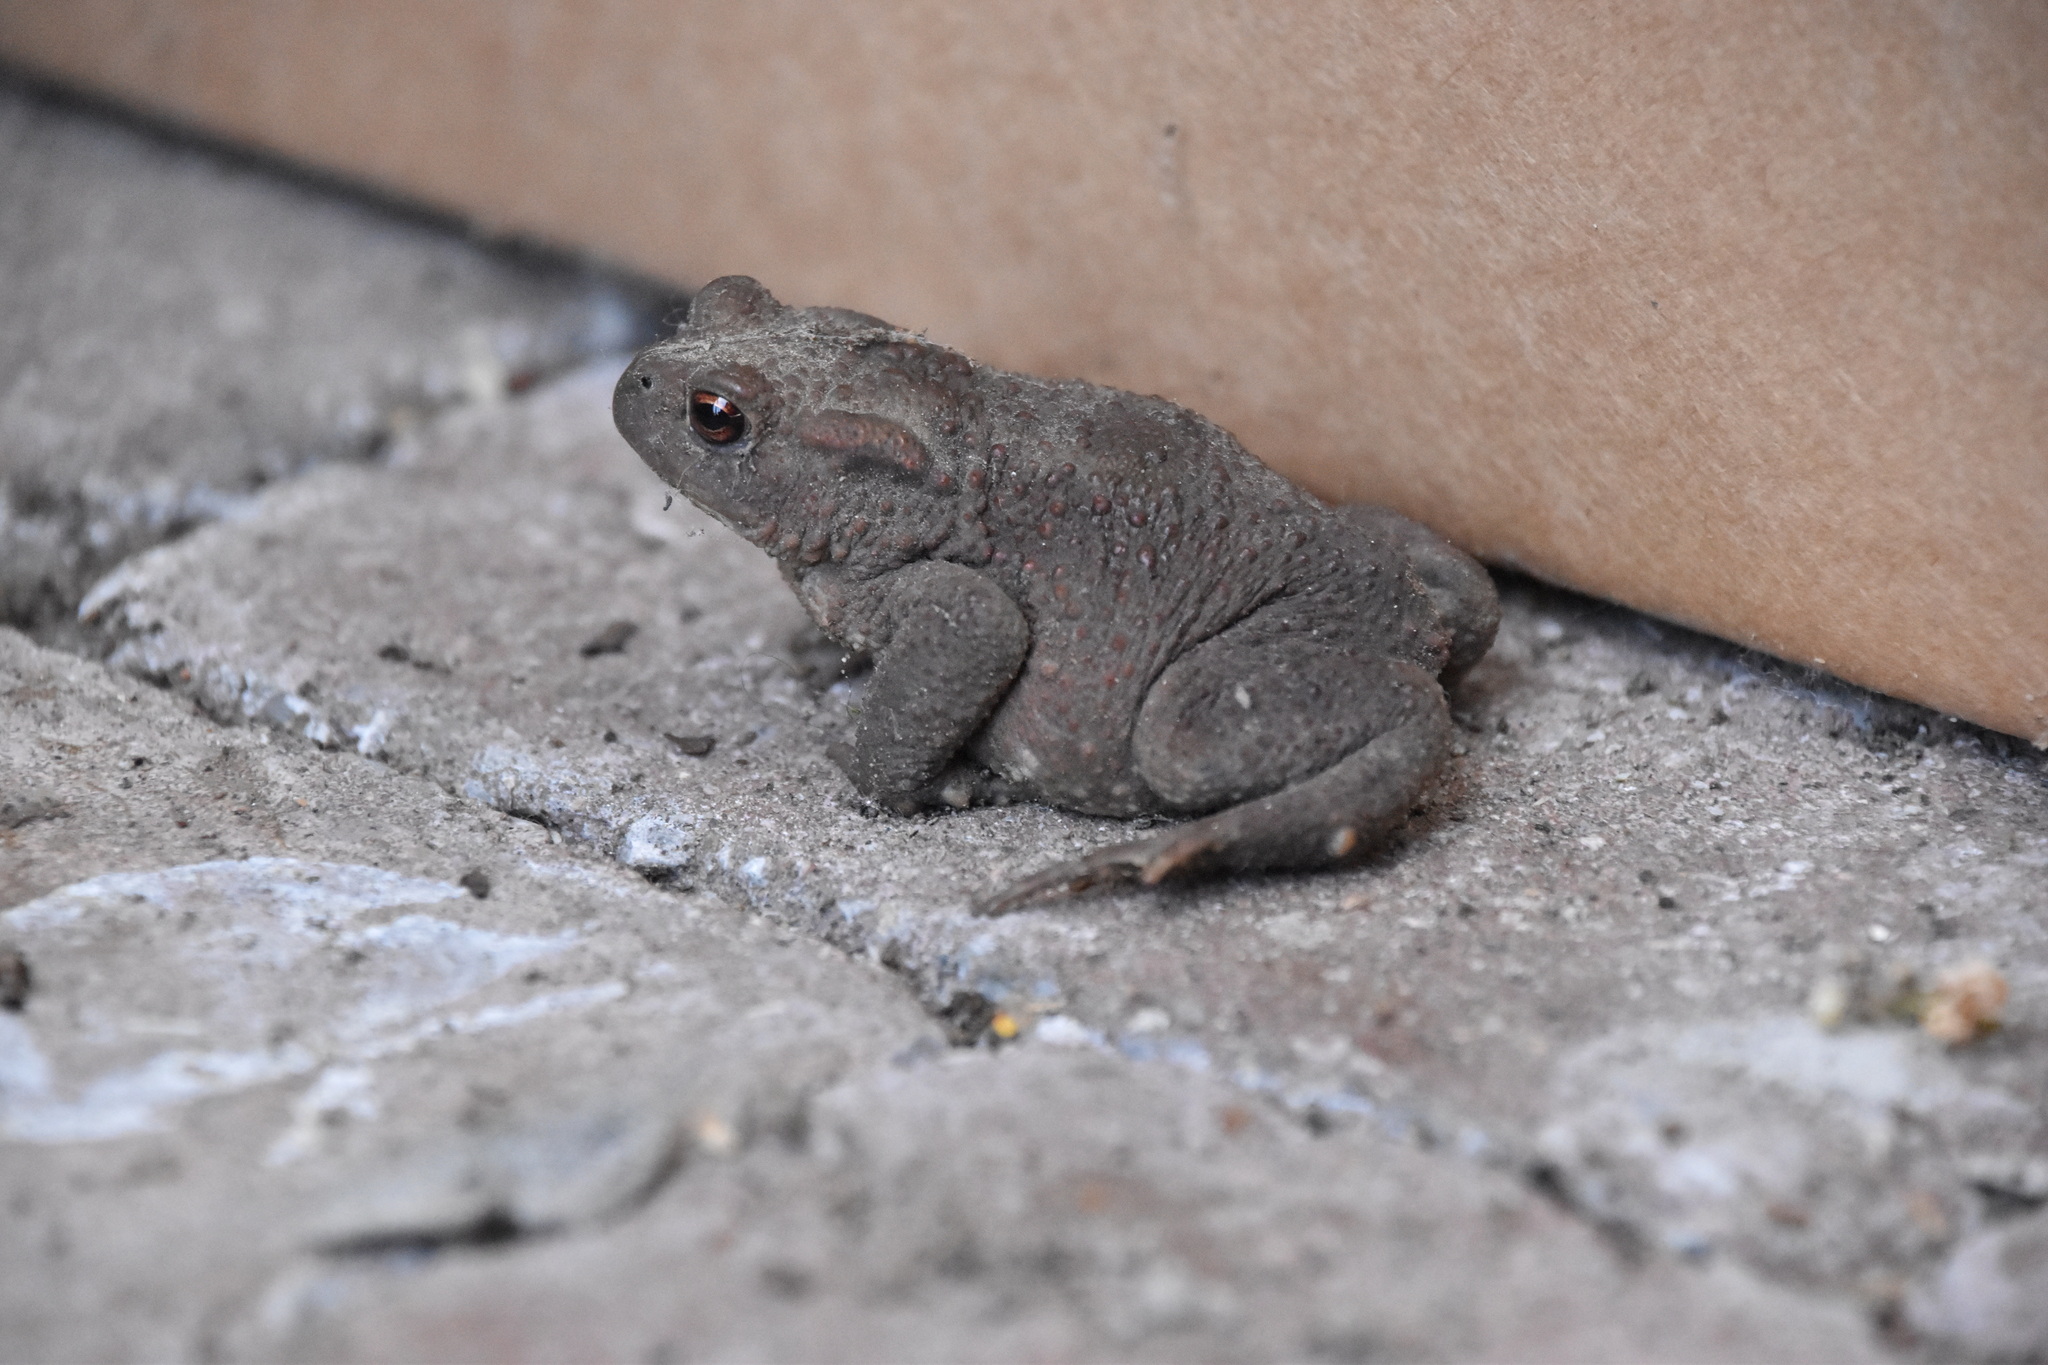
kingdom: Animalia
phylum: Chordata
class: Amphibia
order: Anura
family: Bufonidae
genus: Bufo
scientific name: Bufo bufo
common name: Common toad
